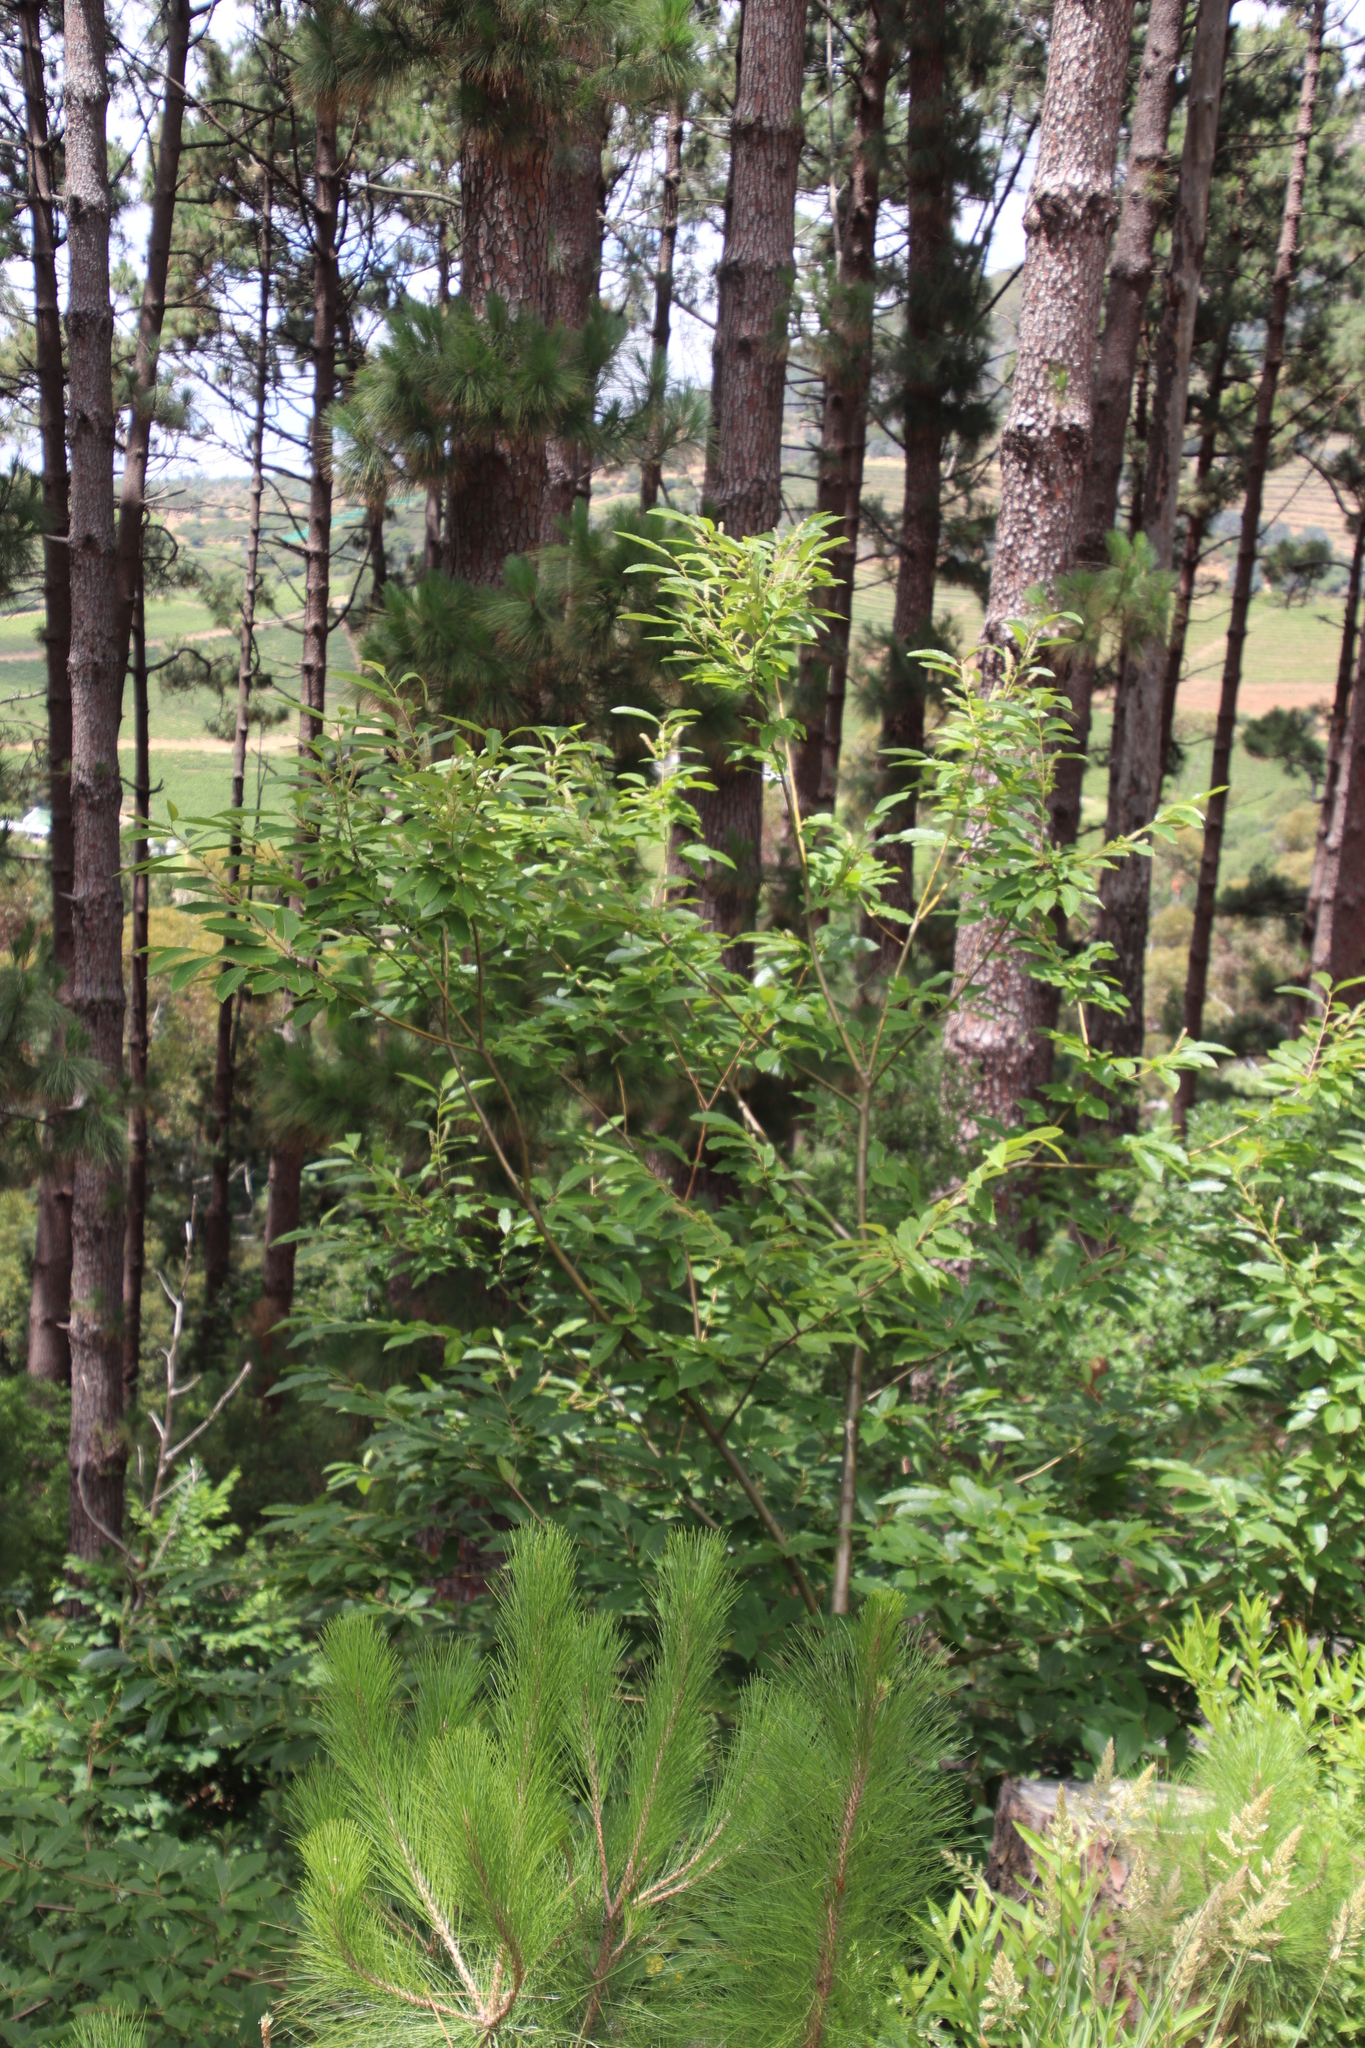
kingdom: Plantae
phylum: Tracheophyta
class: Magnoliopsida
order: Fagales
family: Fagaceae
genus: Castanea
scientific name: Castanea sativa
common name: Sweet chestnut
